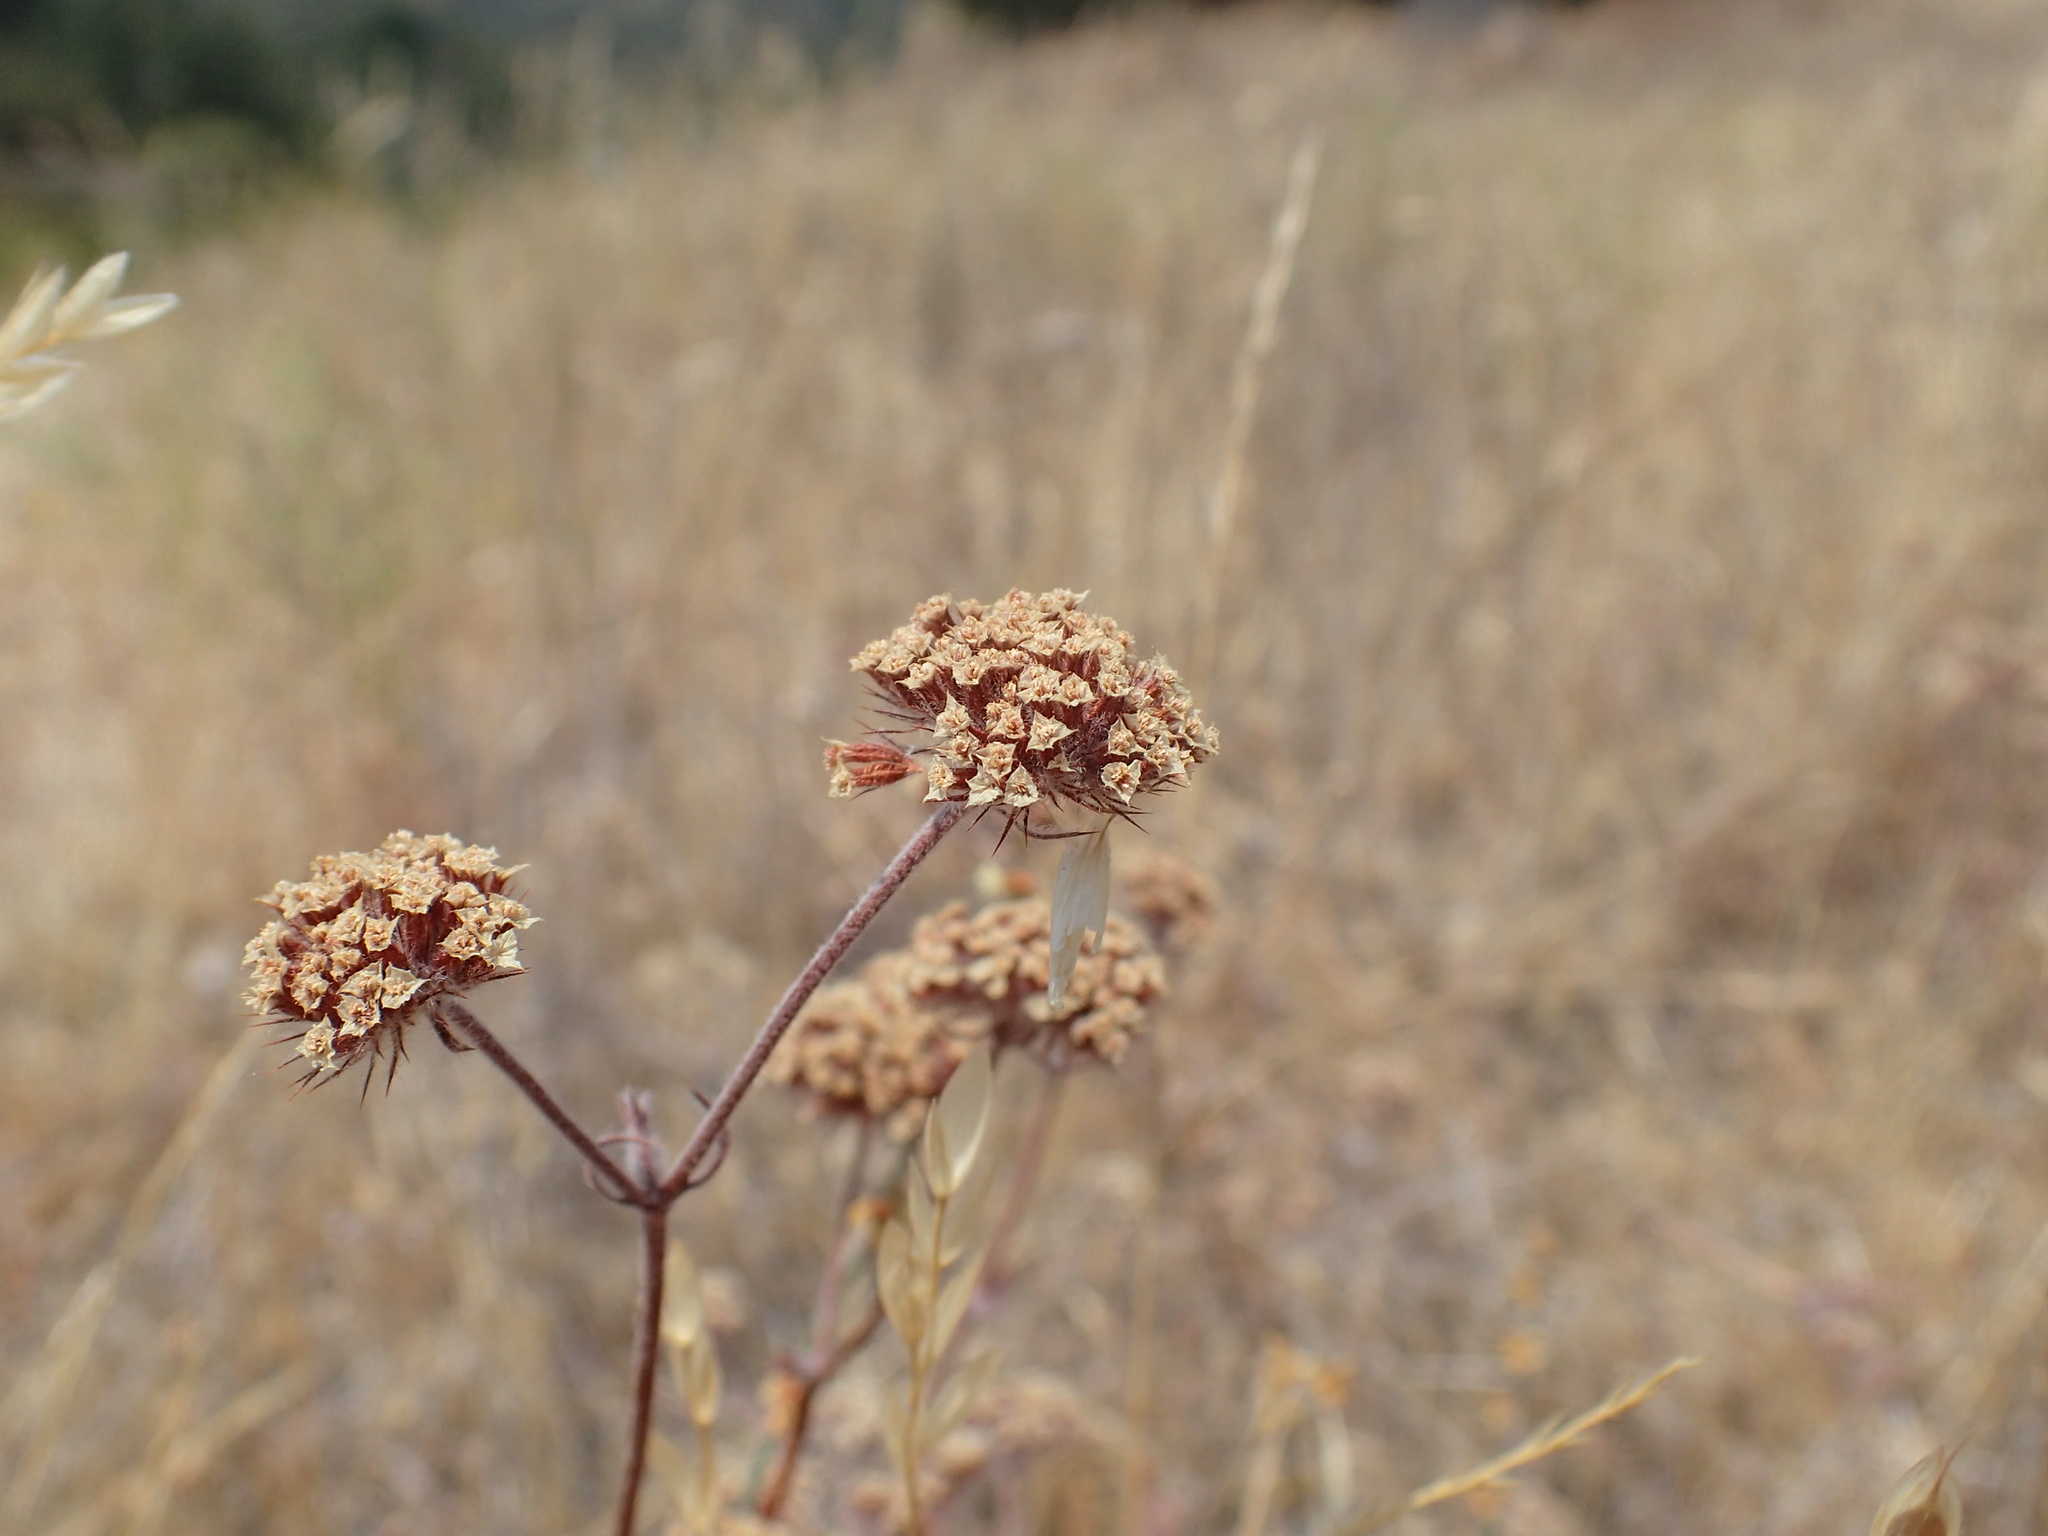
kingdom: Plantae
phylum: Tracheophyta
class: Magnoliopsida
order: Caryophyllales
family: Polygonaceae
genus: Chorizanthe
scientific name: Chorizanthe douglasii
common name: Douglas's spineflower
